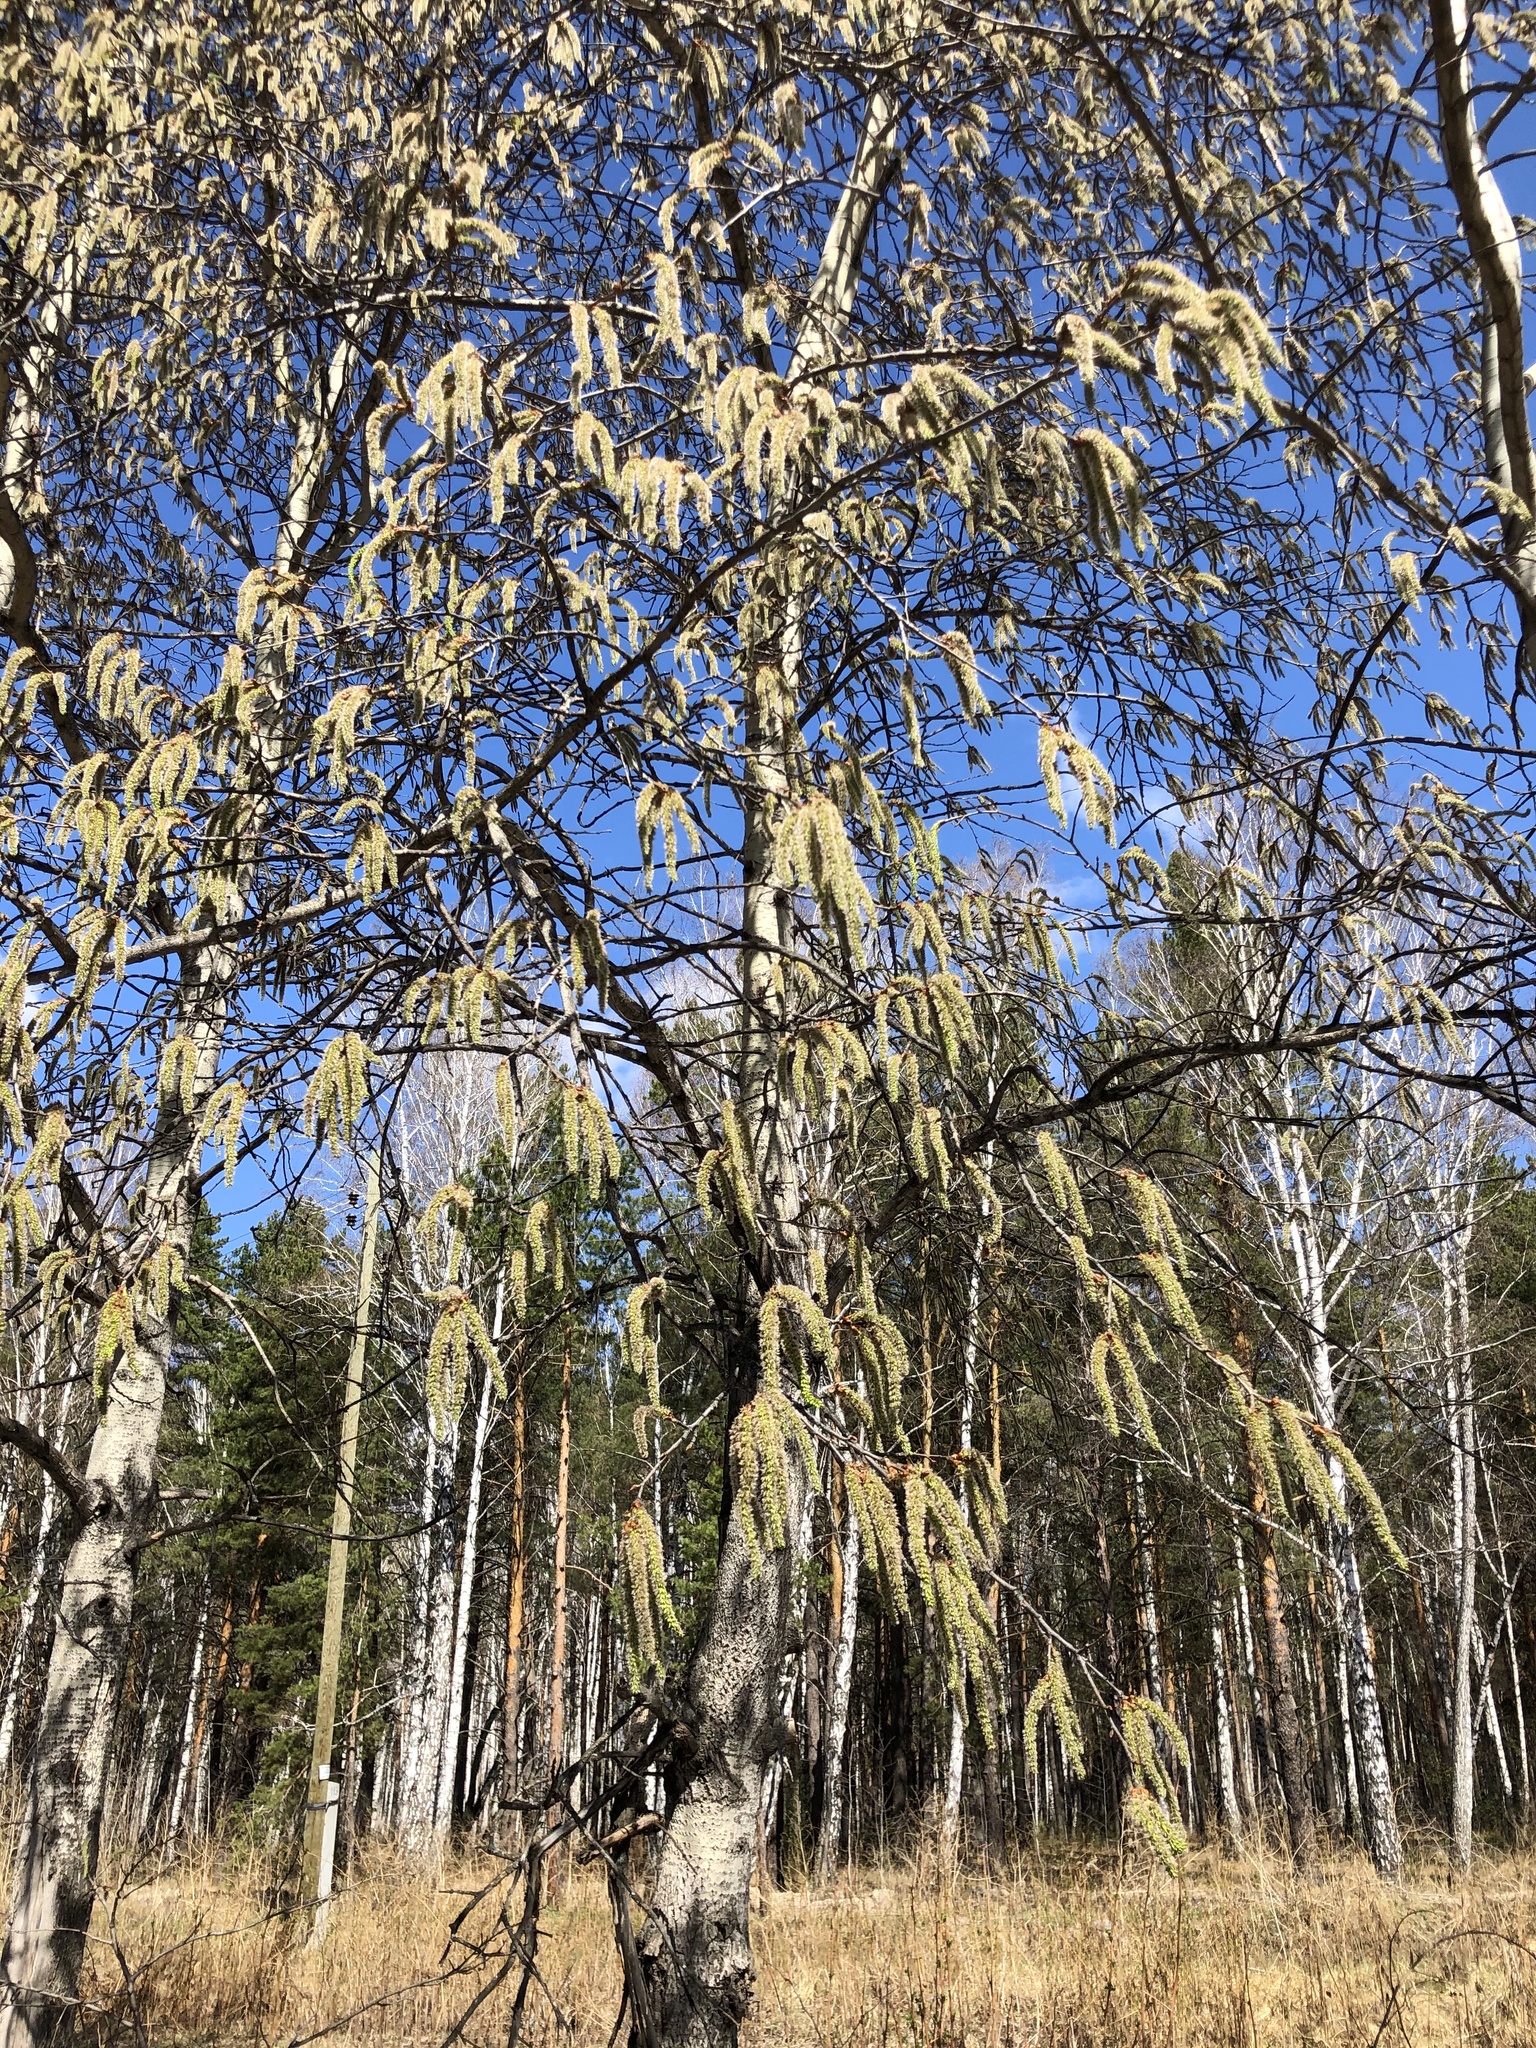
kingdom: Plantae
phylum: Tracheophyta
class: Magnoliopsida
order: Malpighiales
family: Salicaceae
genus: Populus
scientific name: Populus tremula
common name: European aspen
